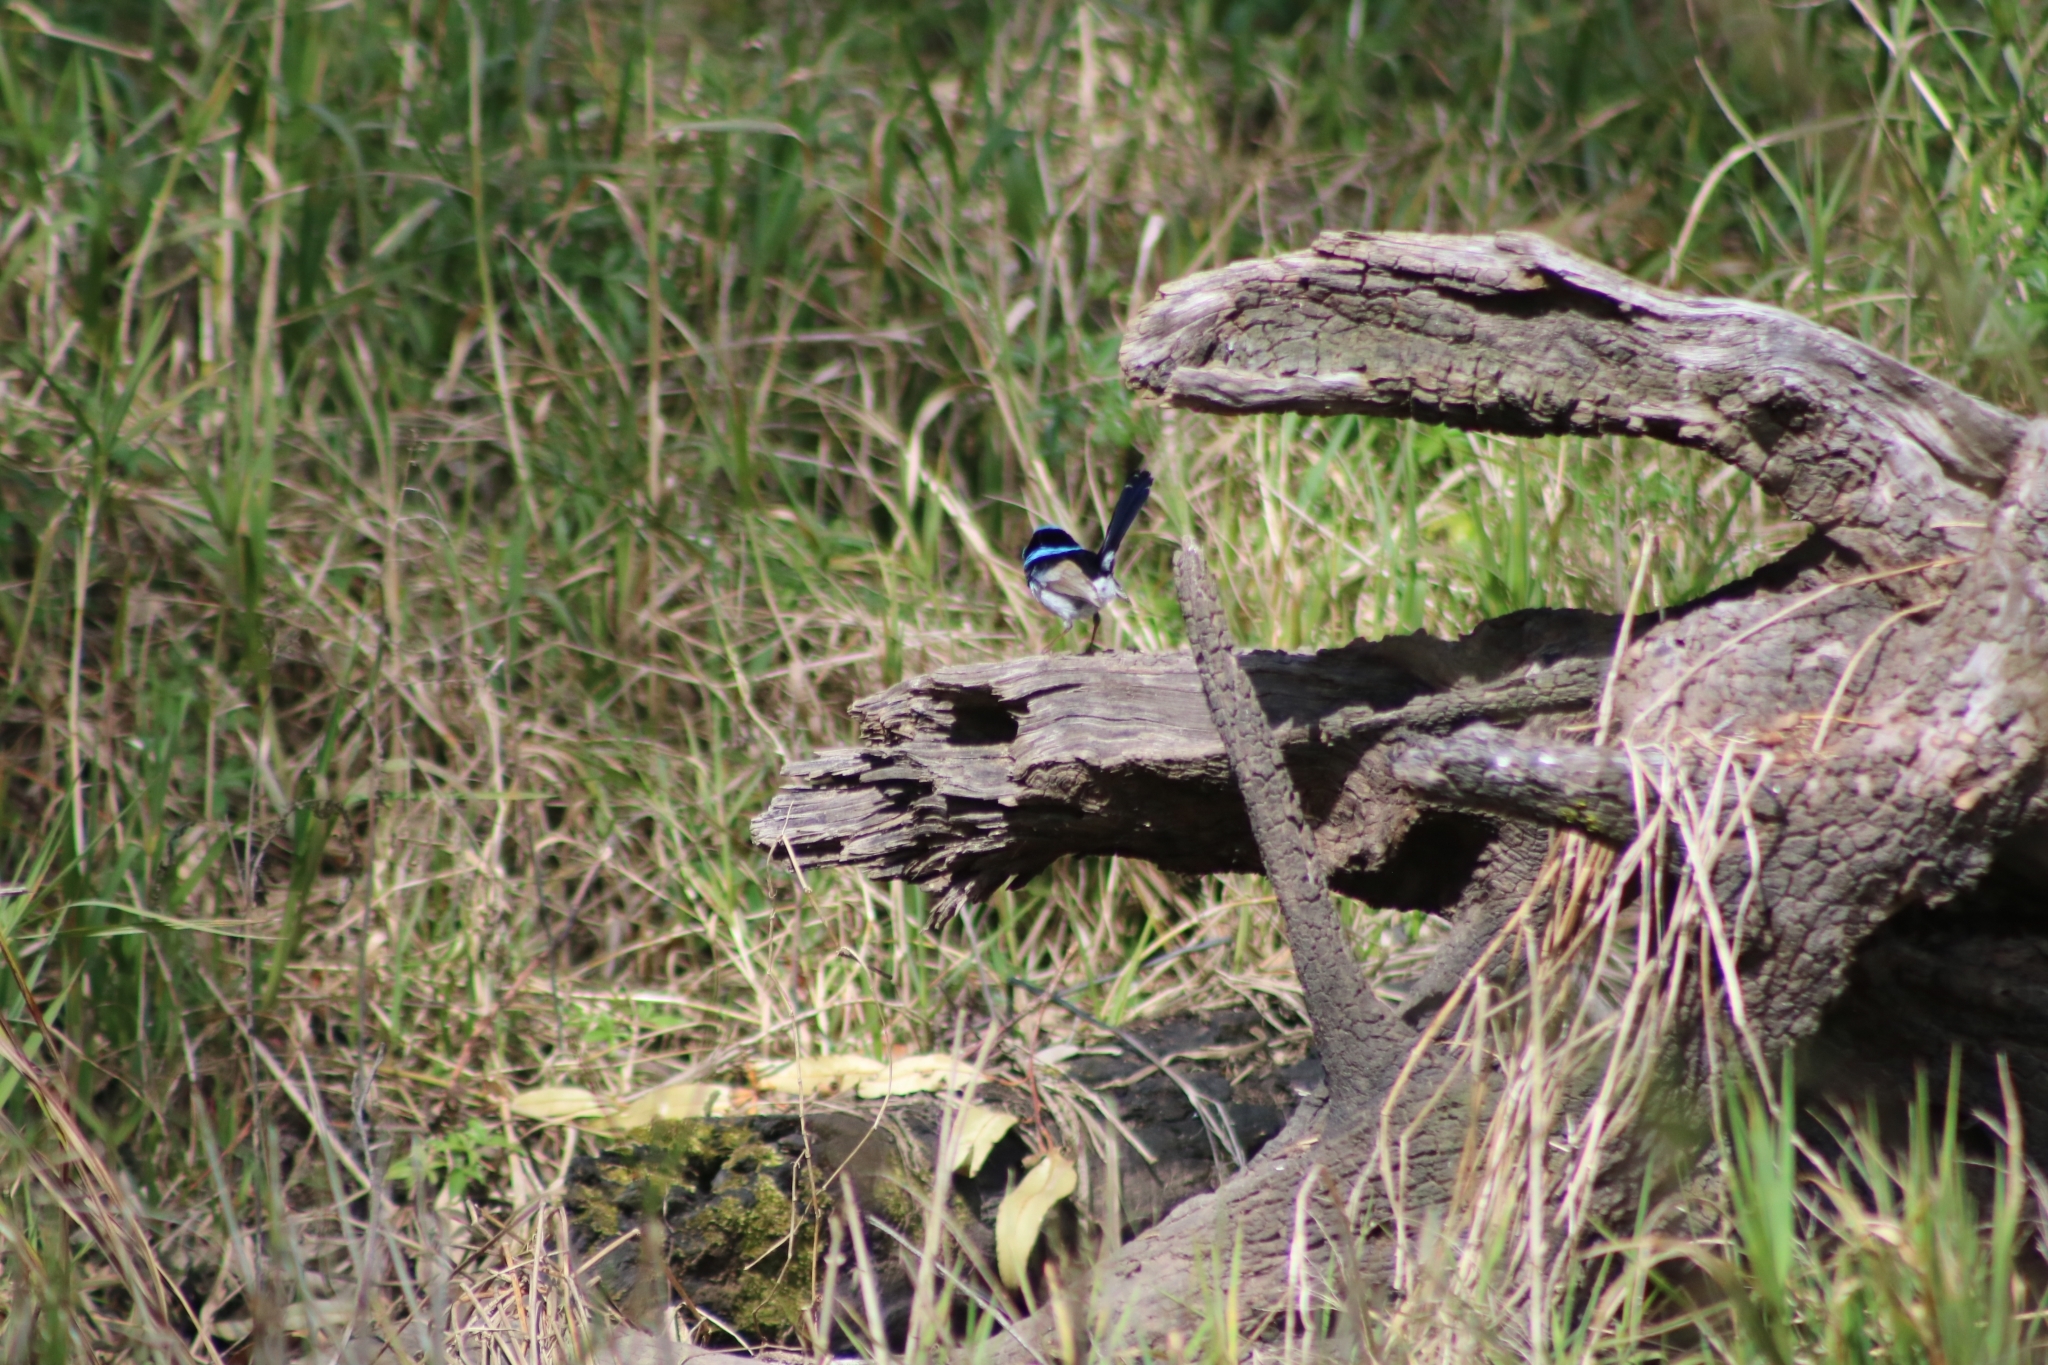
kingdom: Animalia
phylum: Chordata
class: Aves
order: Passeriformes
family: Maluridae
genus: Malurus
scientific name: Malurus cyaneus
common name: Superb fairywren
